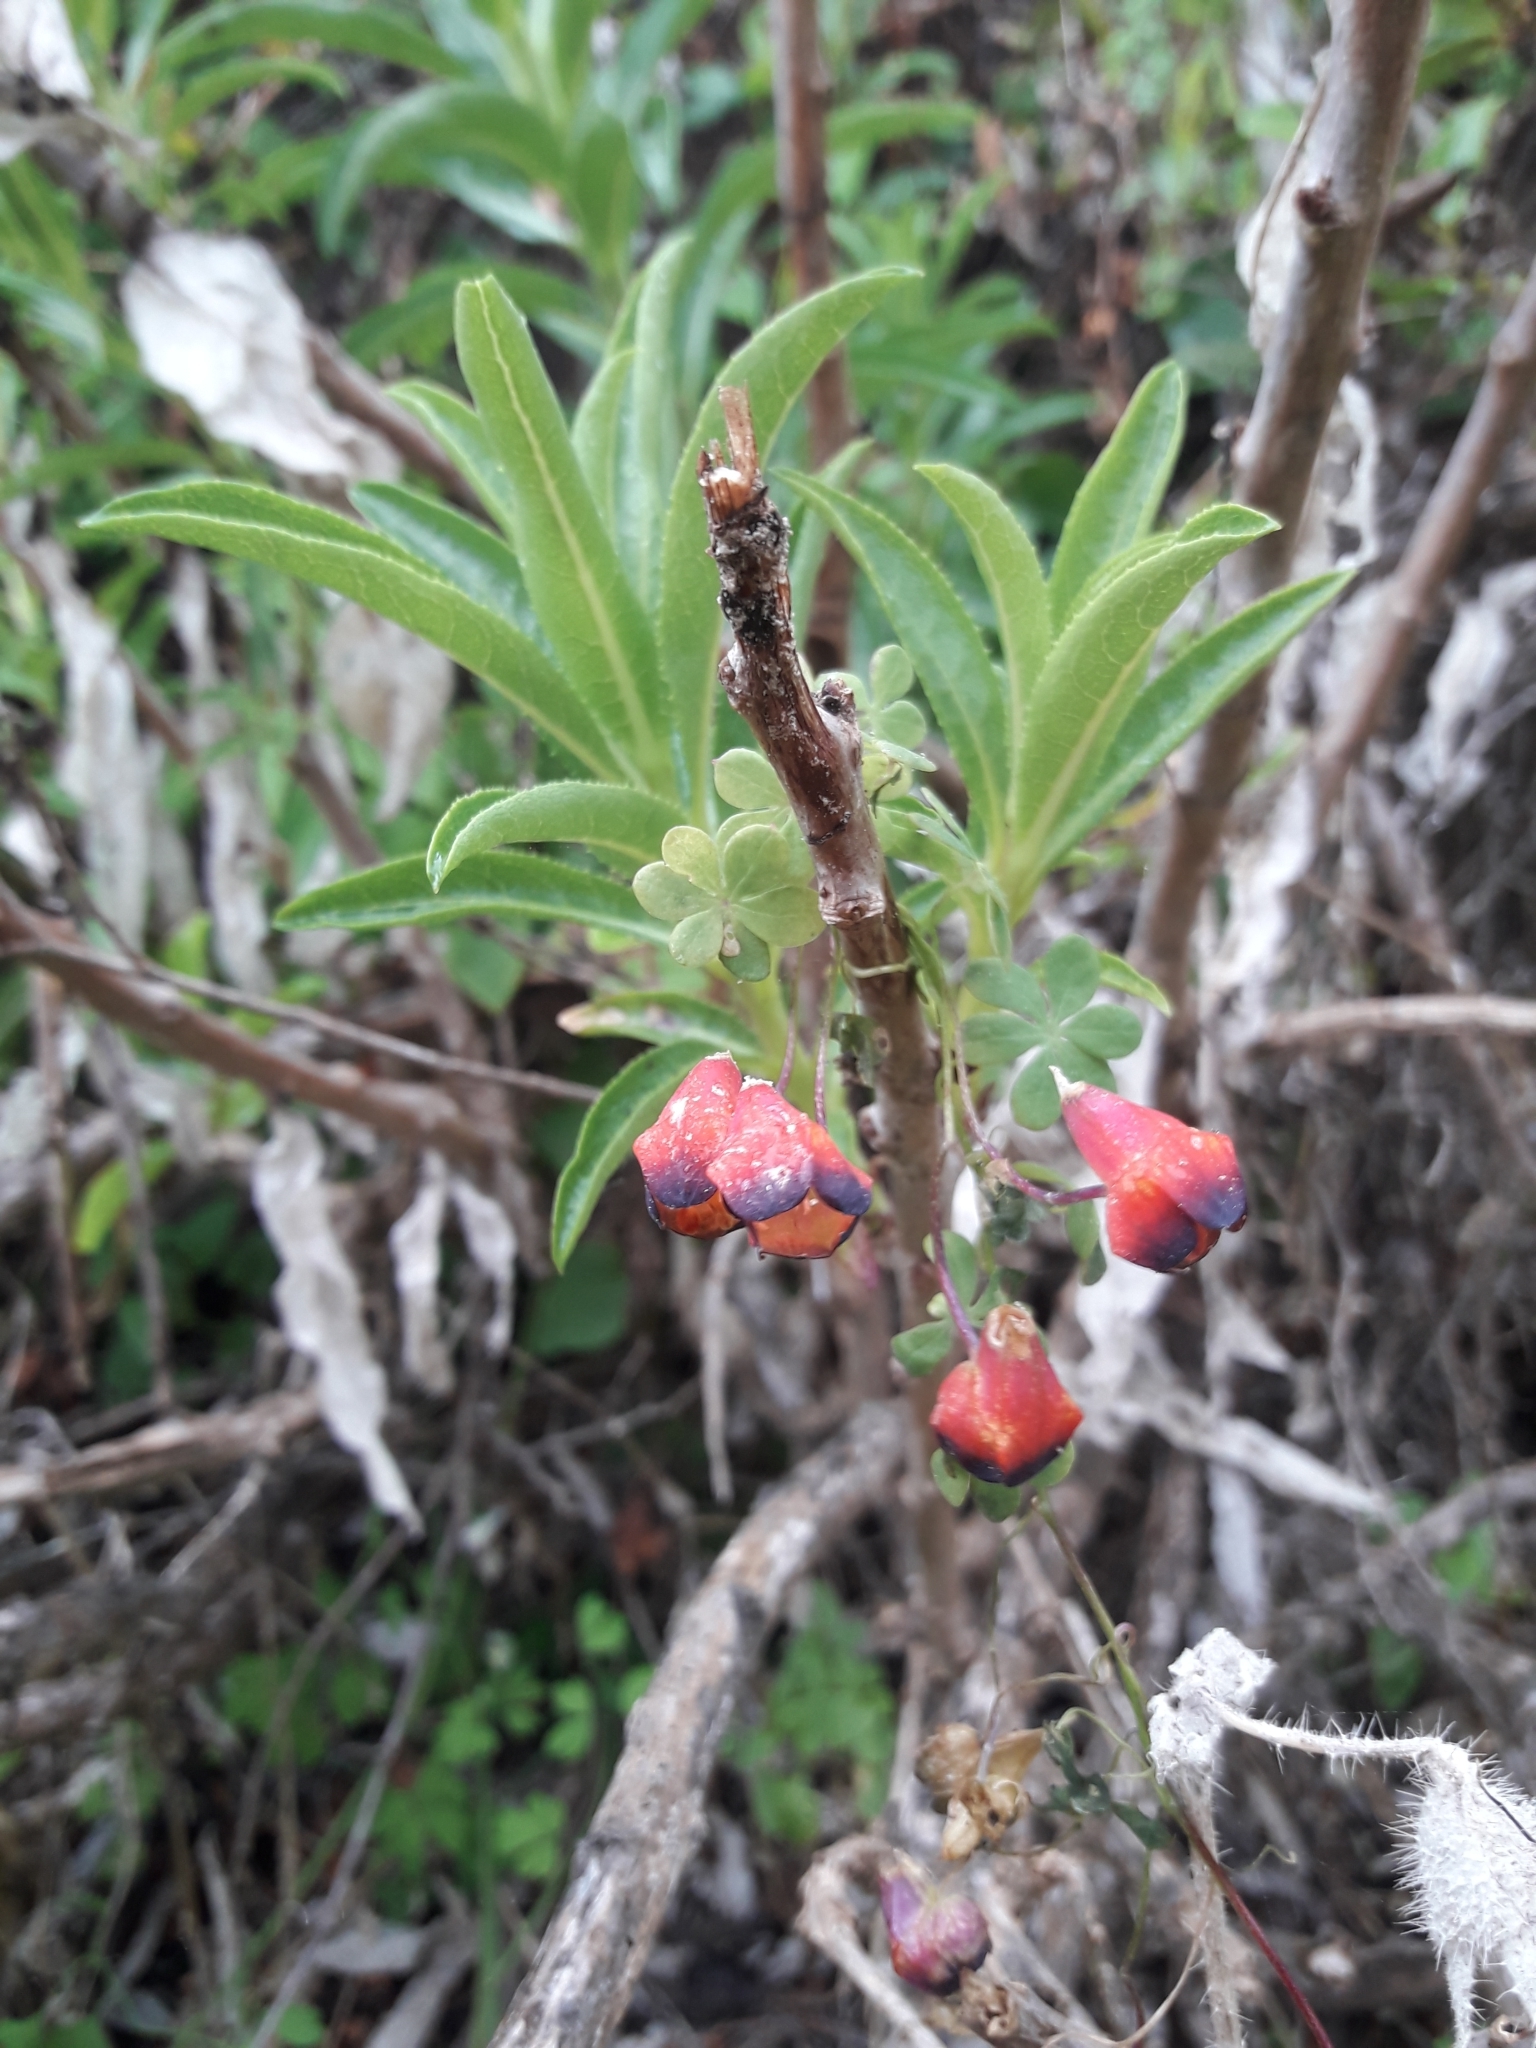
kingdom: Plantae
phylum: Tracheophyta
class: Magnoliopsida
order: Brassicales
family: Tropaeolaceae
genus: Tropaeolum
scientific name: Tropaeolum tricolor
